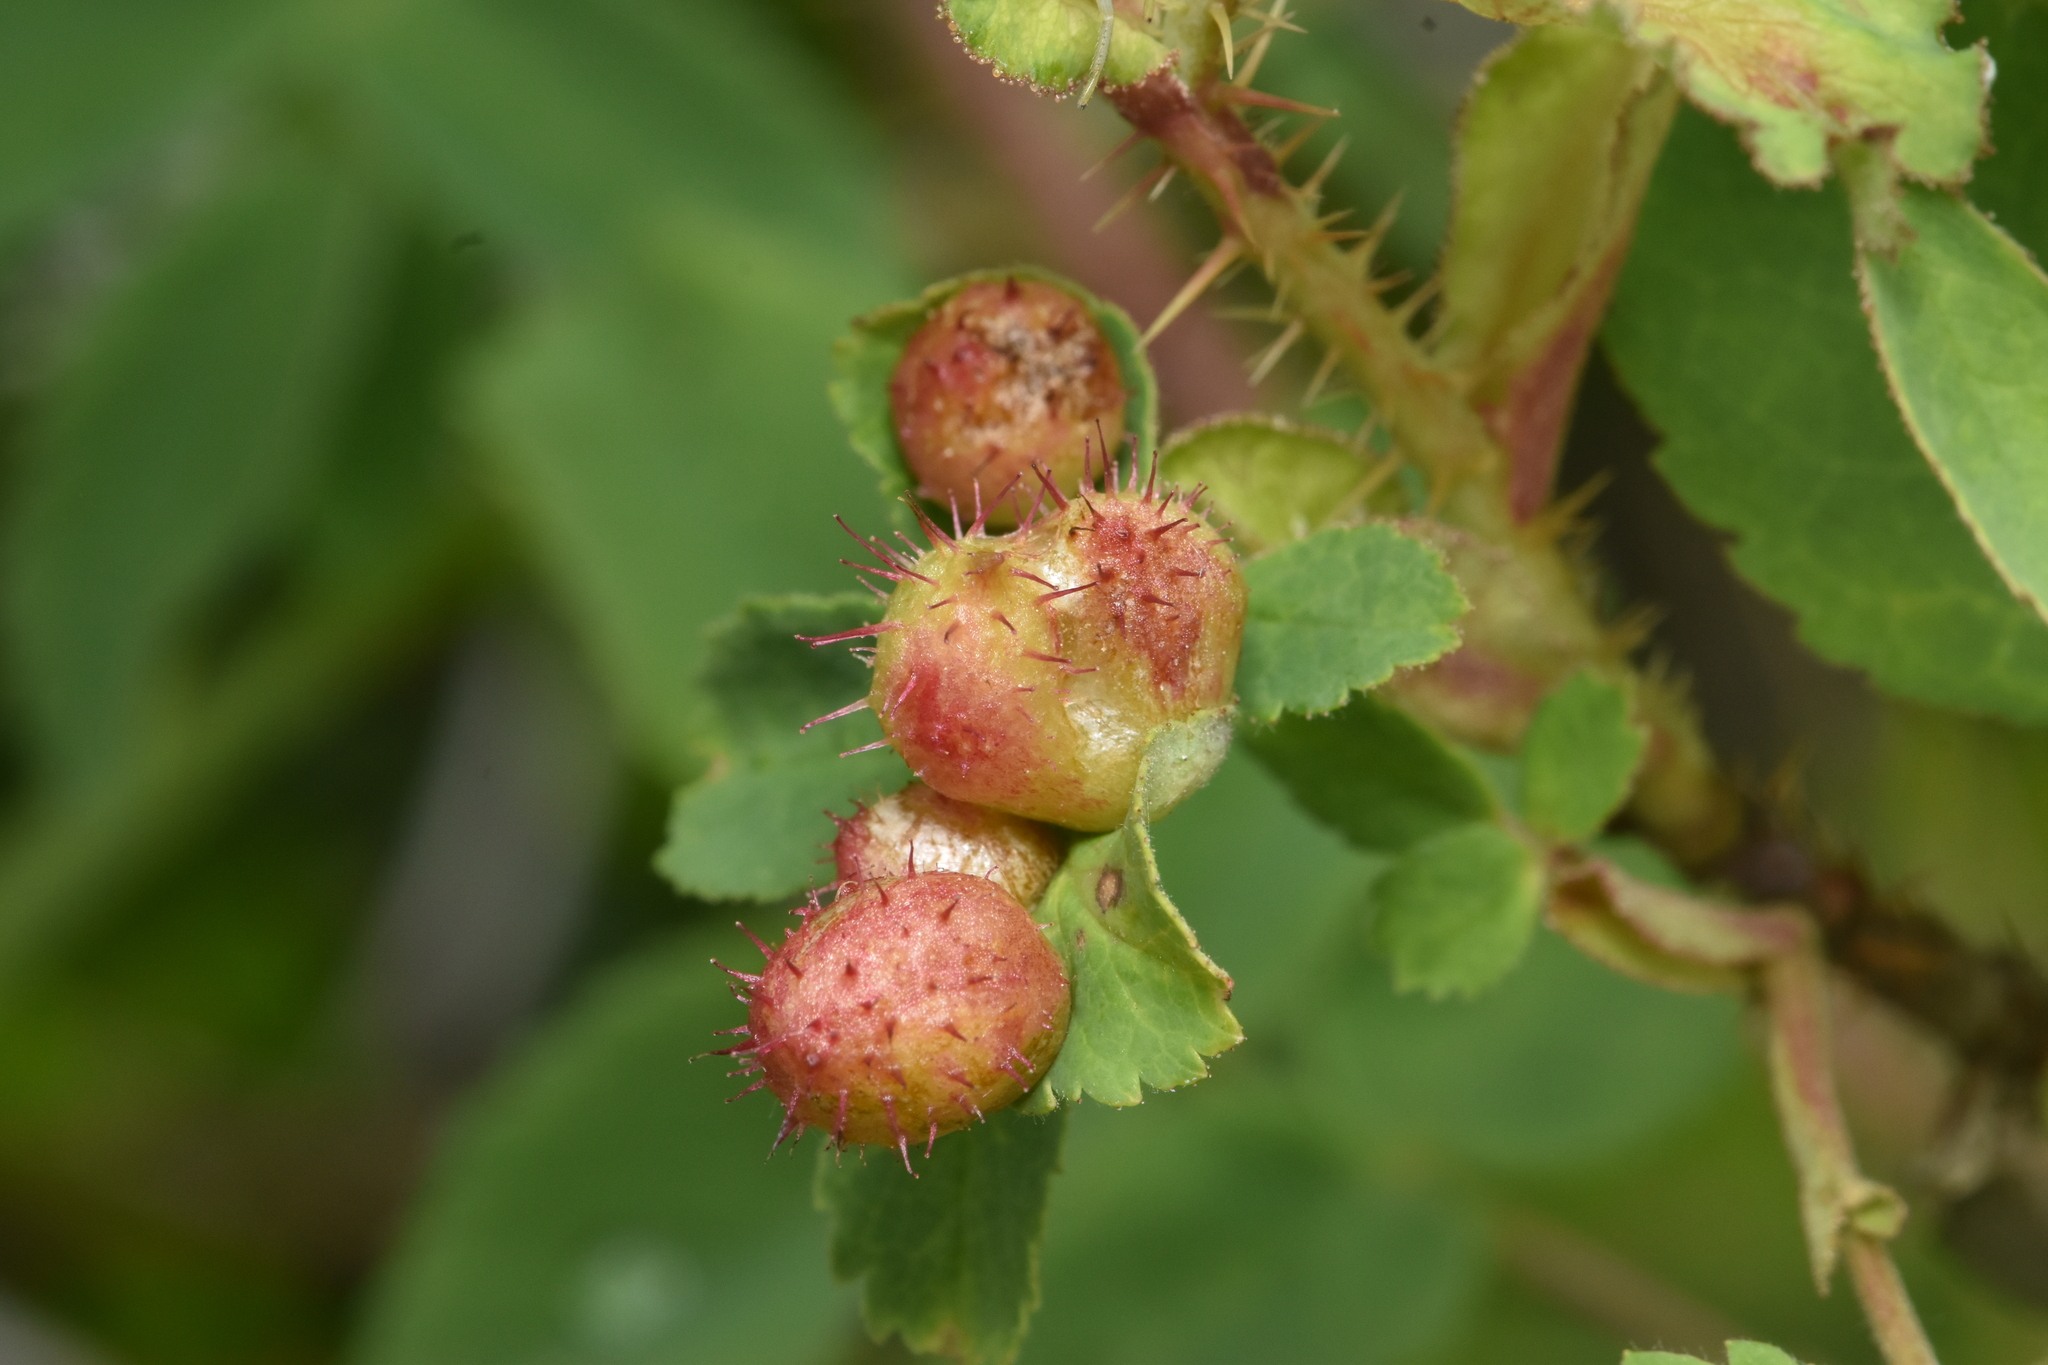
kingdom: Animalia
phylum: Arthropoda
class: Insecta
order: Hymenoptera
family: Cynipidae
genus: Diplolepis
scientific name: Diplolepis polita
